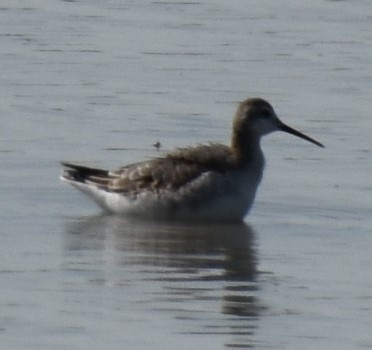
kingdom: Animalia
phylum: Chordata
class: Aves
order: Charadriiformes
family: Scolopacidae
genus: Phalaropus
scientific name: Phalaropus tricolor
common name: Wilson's phalarope
